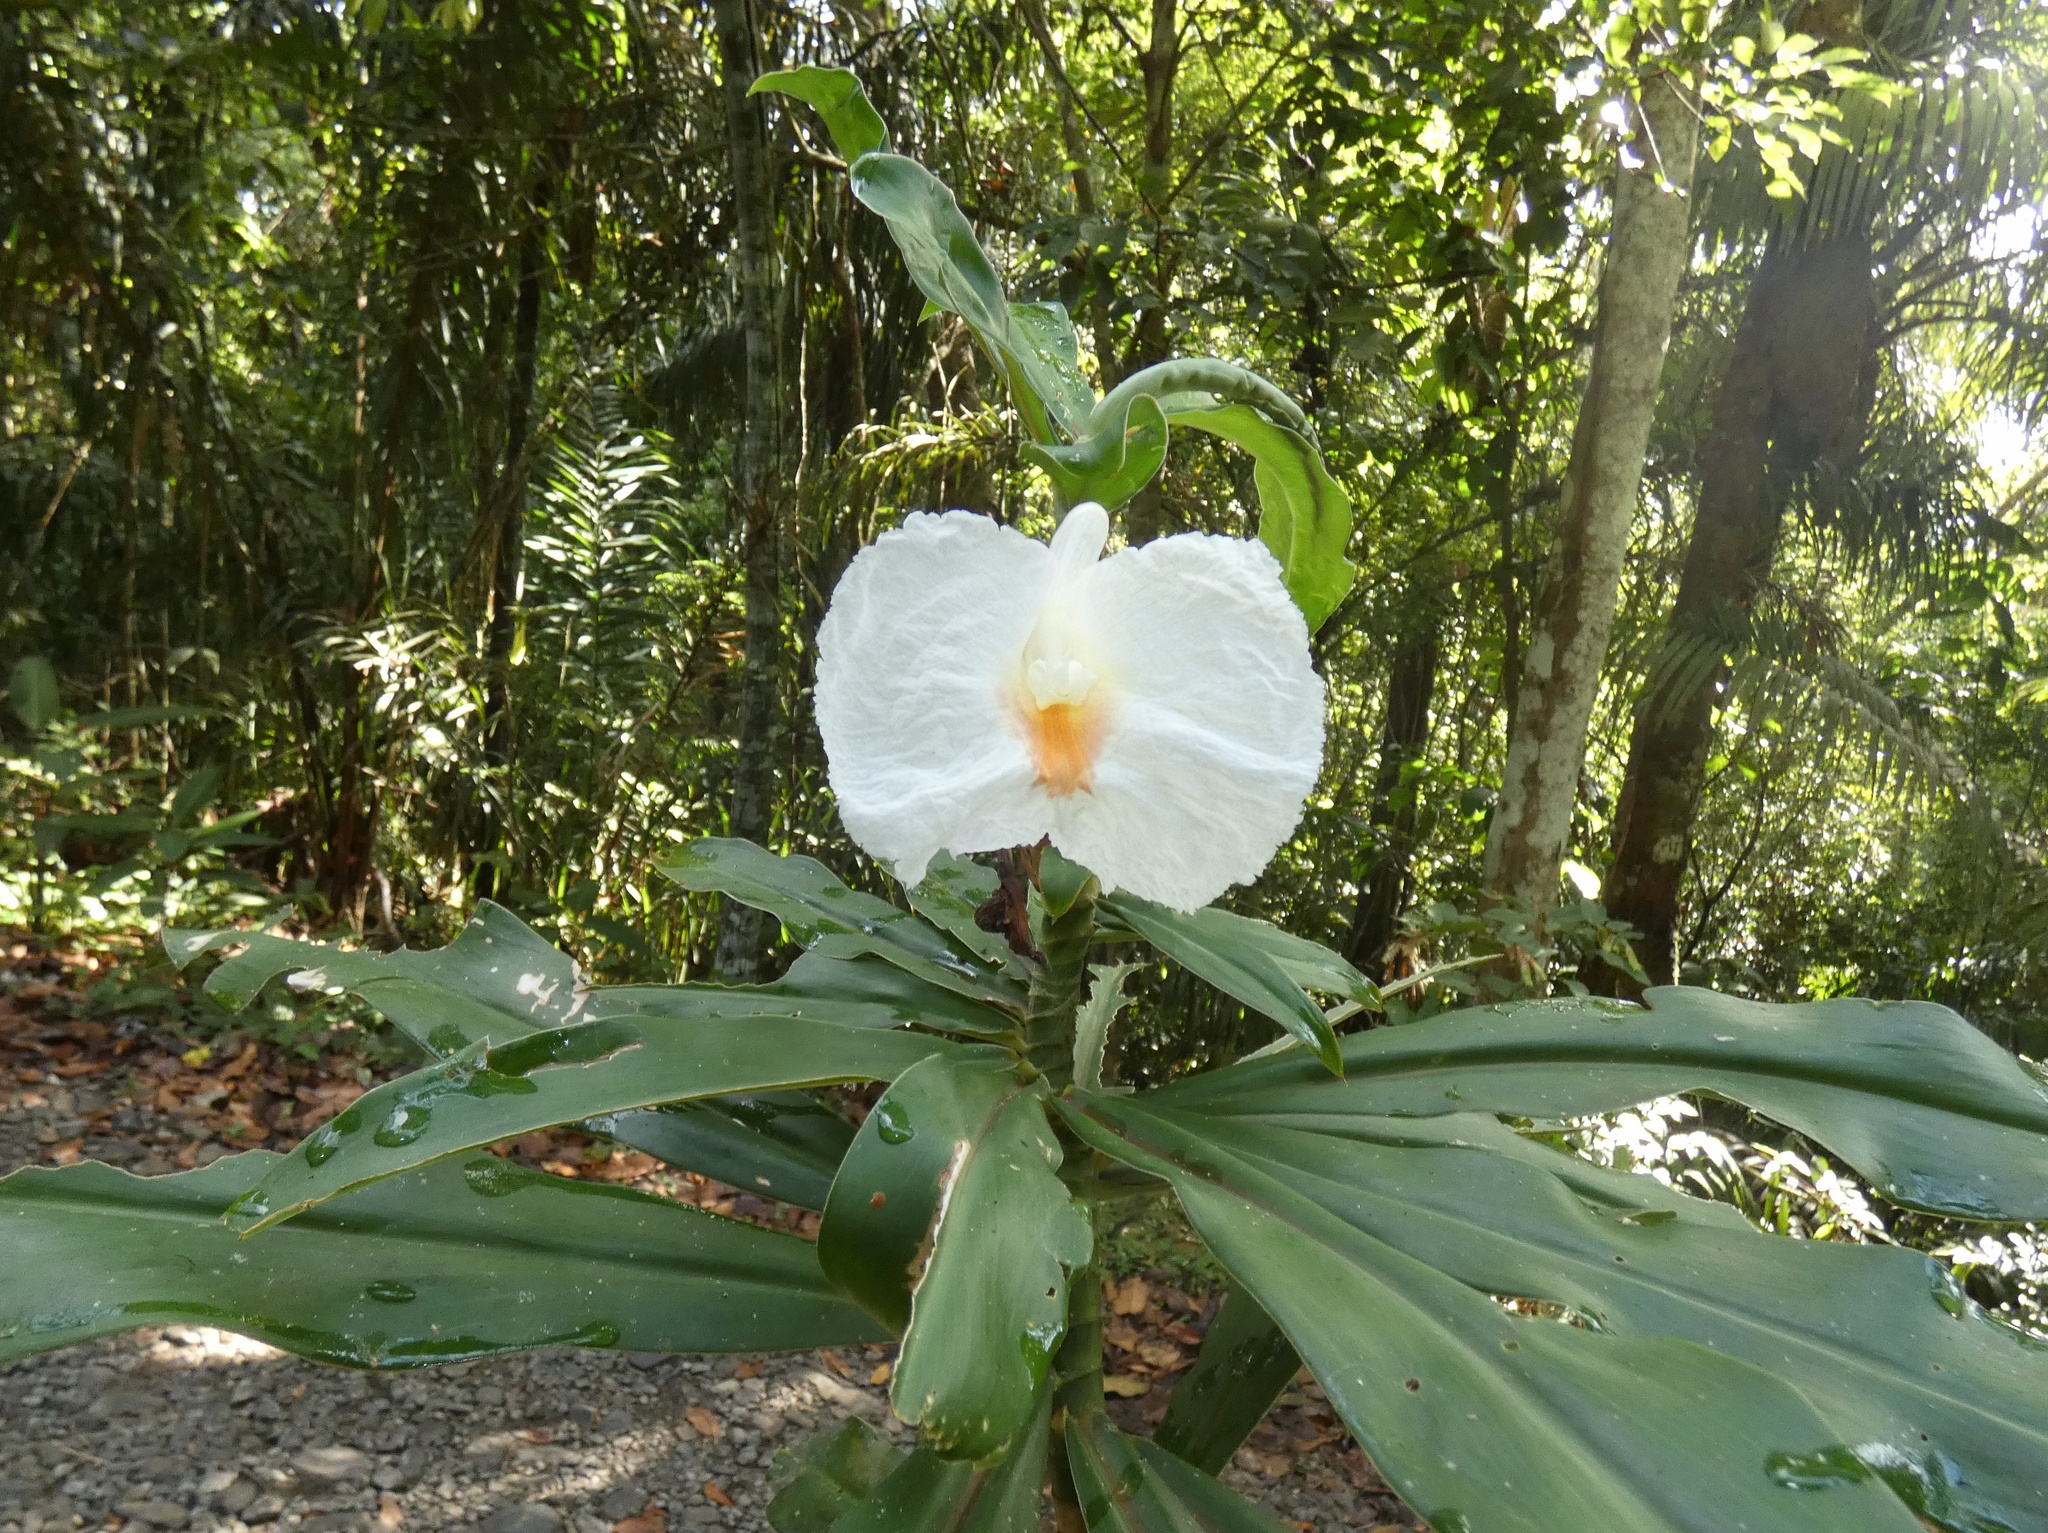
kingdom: Plantae
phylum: Tracheophyta
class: Liliopsida
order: Zingiberales
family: Costaceae
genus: Dimerocostus
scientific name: Dimerocostus strobilaceus
